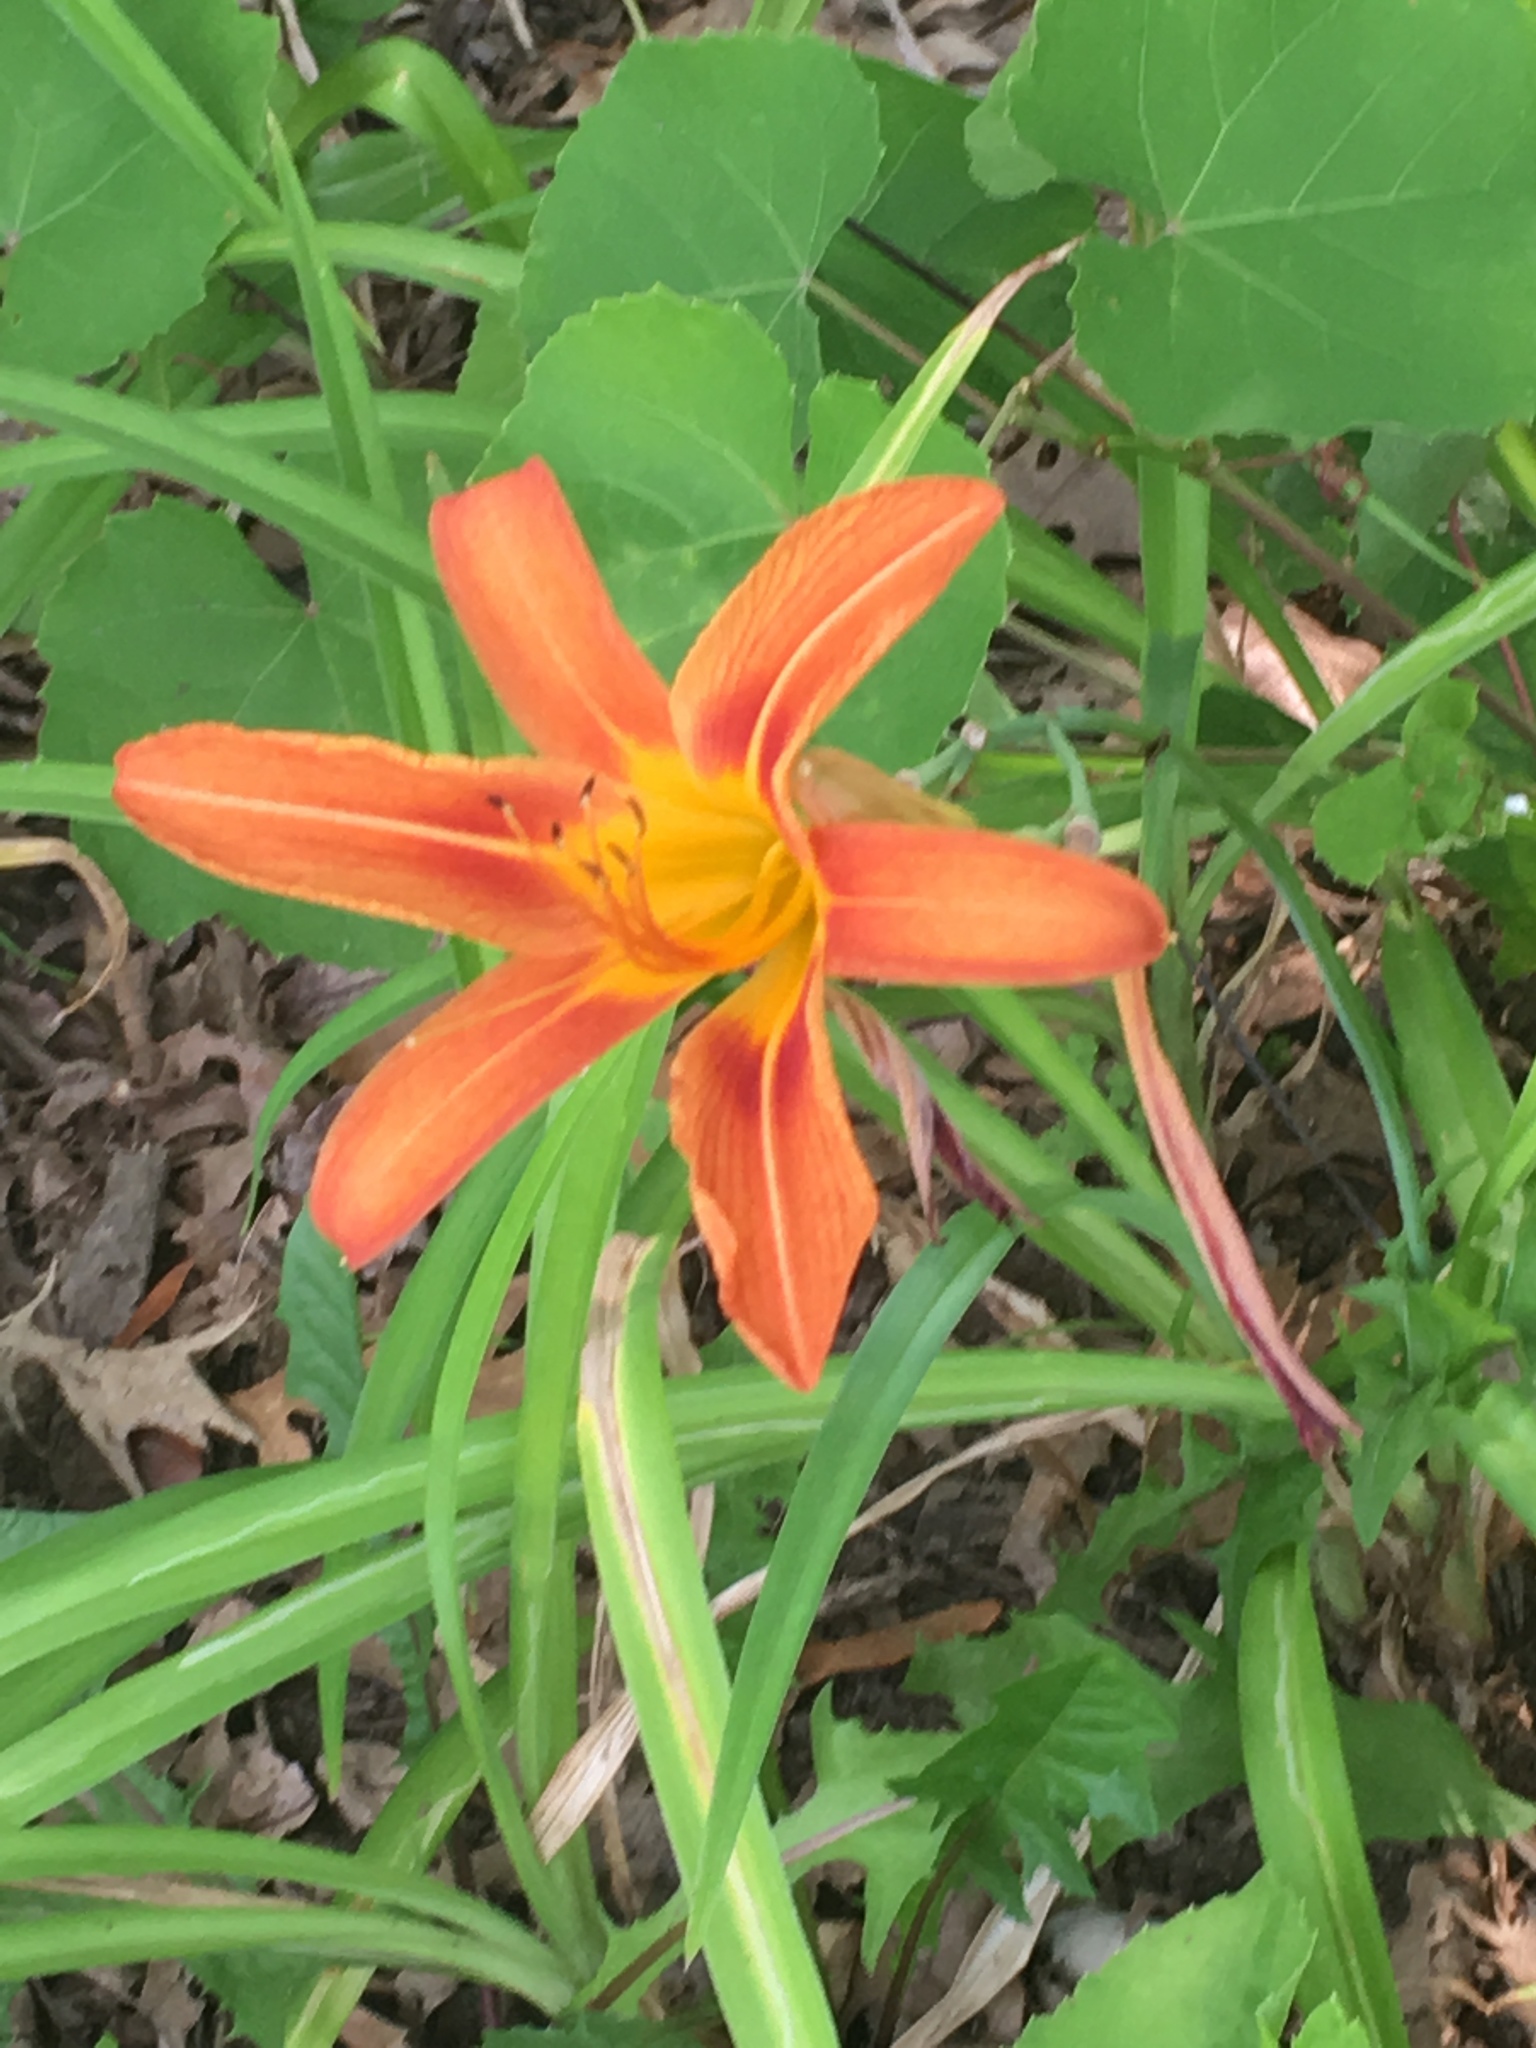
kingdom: Plantae
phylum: Tracheophyta
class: Liliopsida
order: Asparagales
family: Asphodelaceae
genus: Hemerocallis
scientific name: Hemerocallis fulva
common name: Orange day-lily
